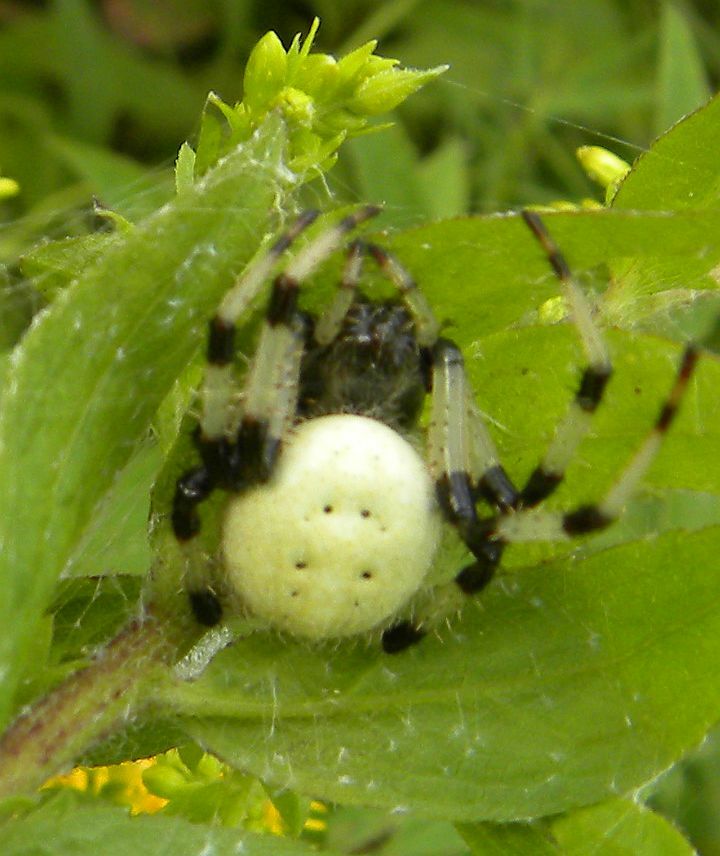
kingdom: Animalia
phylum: Arthropoda
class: Arachnida
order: Araneae
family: Araneidae
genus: Araneus
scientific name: Araneus trifolium
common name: Shamrock orbweaver
